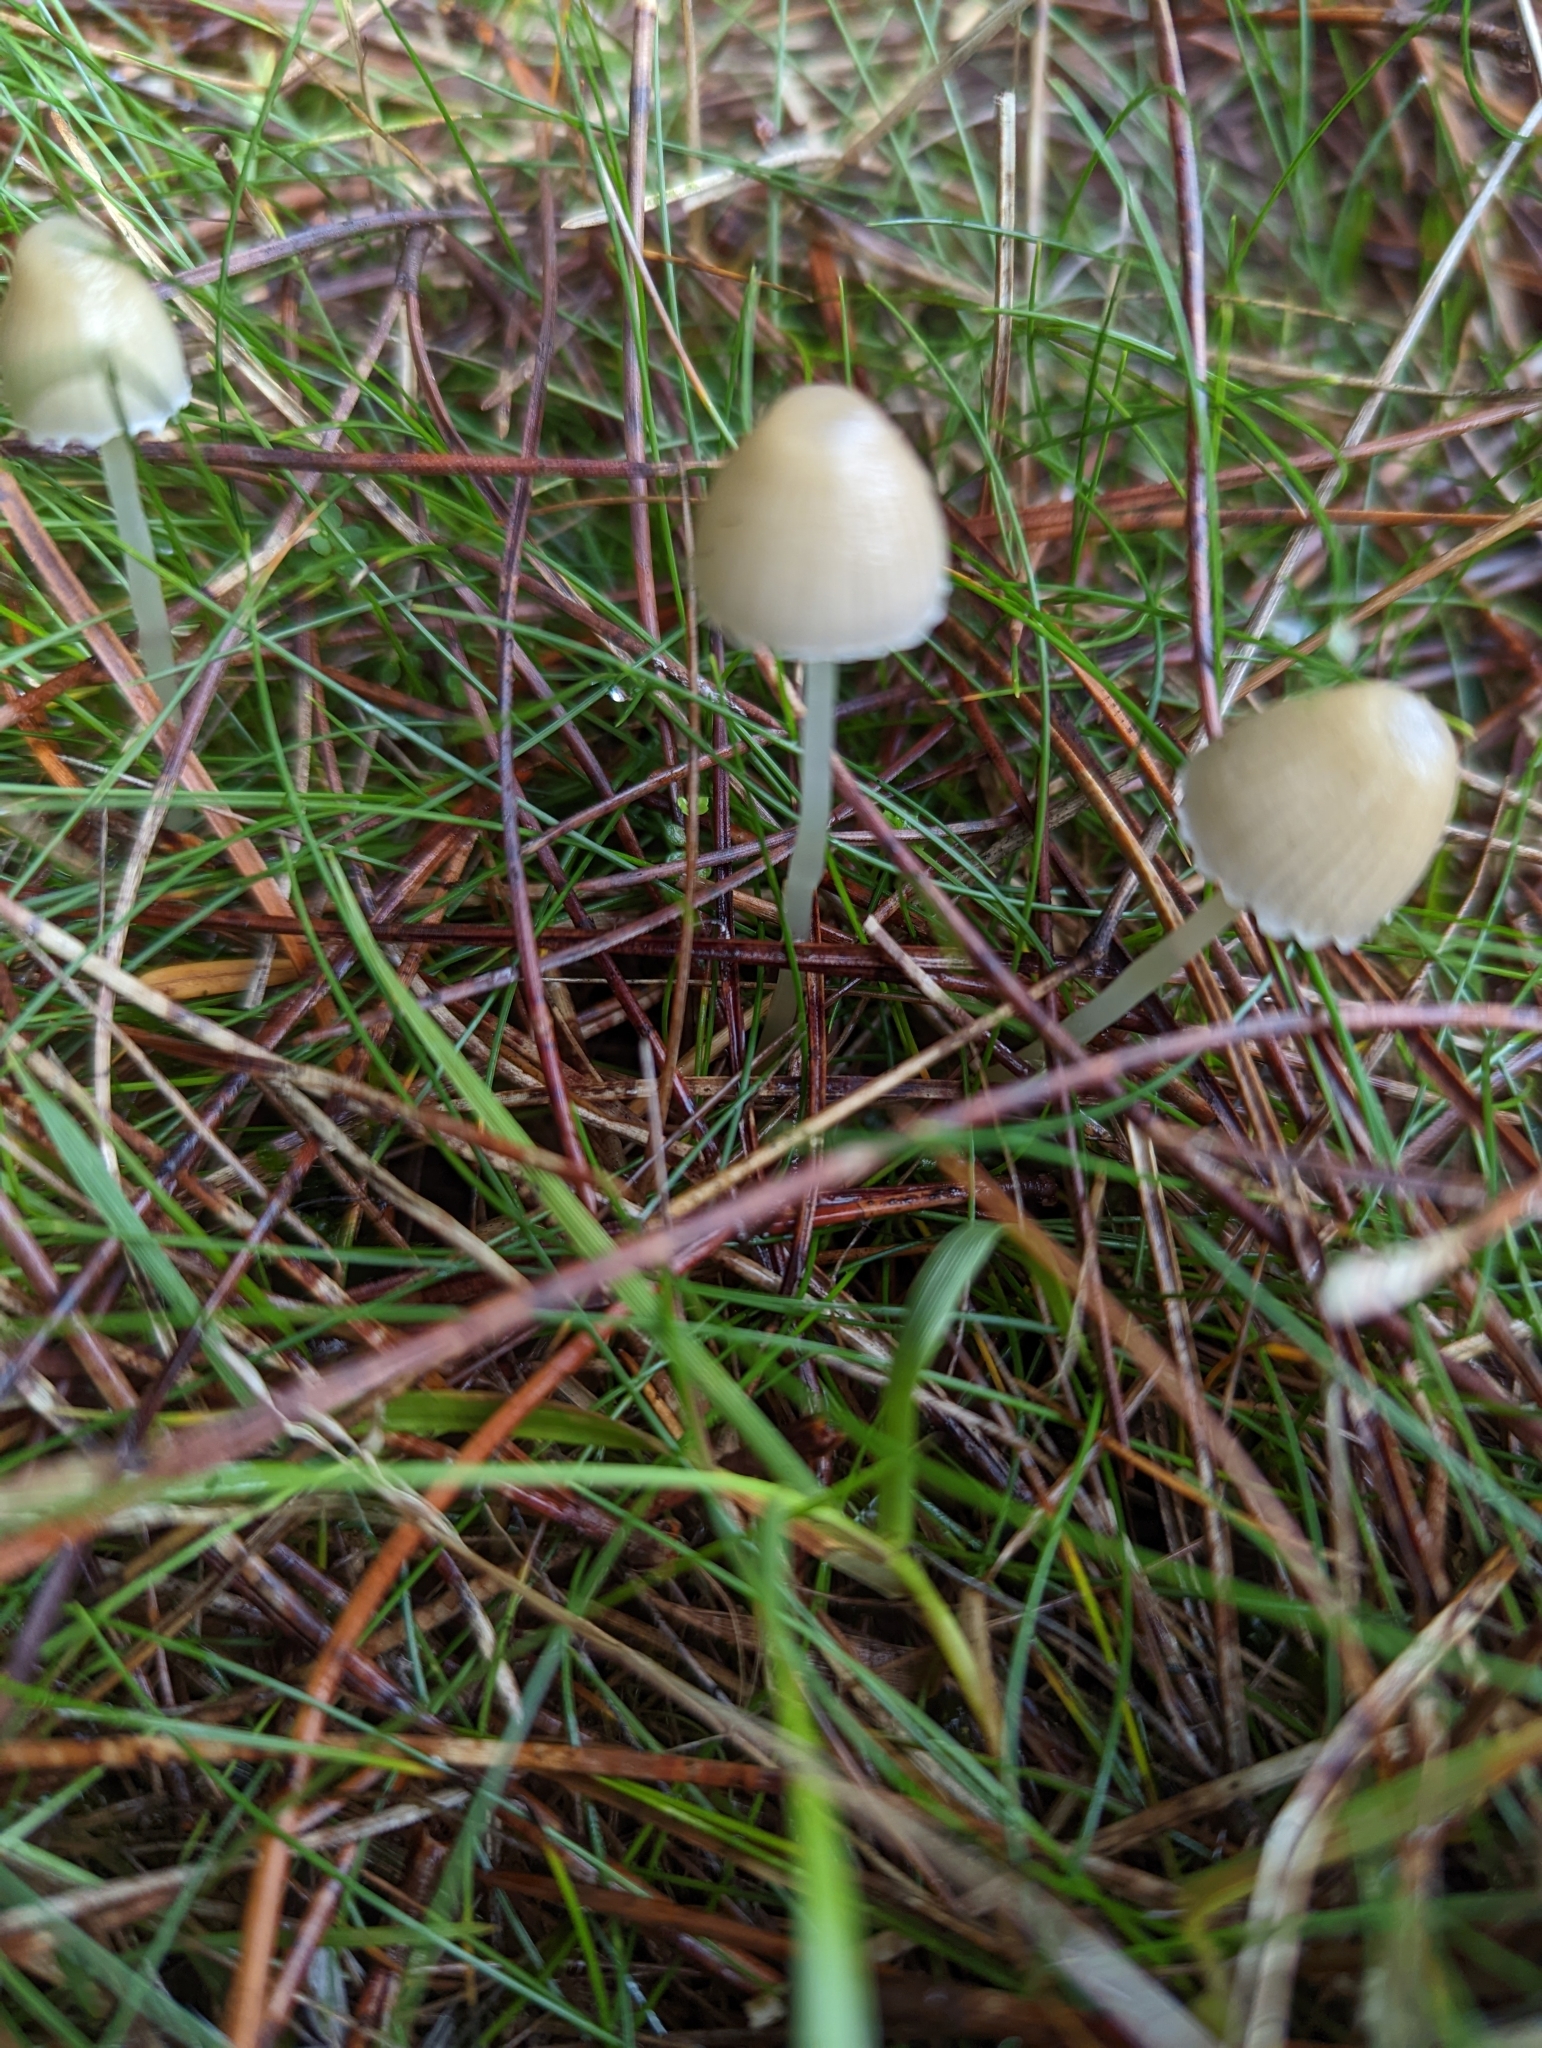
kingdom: Fungi
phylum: Basidiomycota
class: Agaricomycetes
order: Agaricales
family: Mycenaceae
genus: Mycena
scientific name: Mycena epipterygia
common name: Yellowleg bonnet
